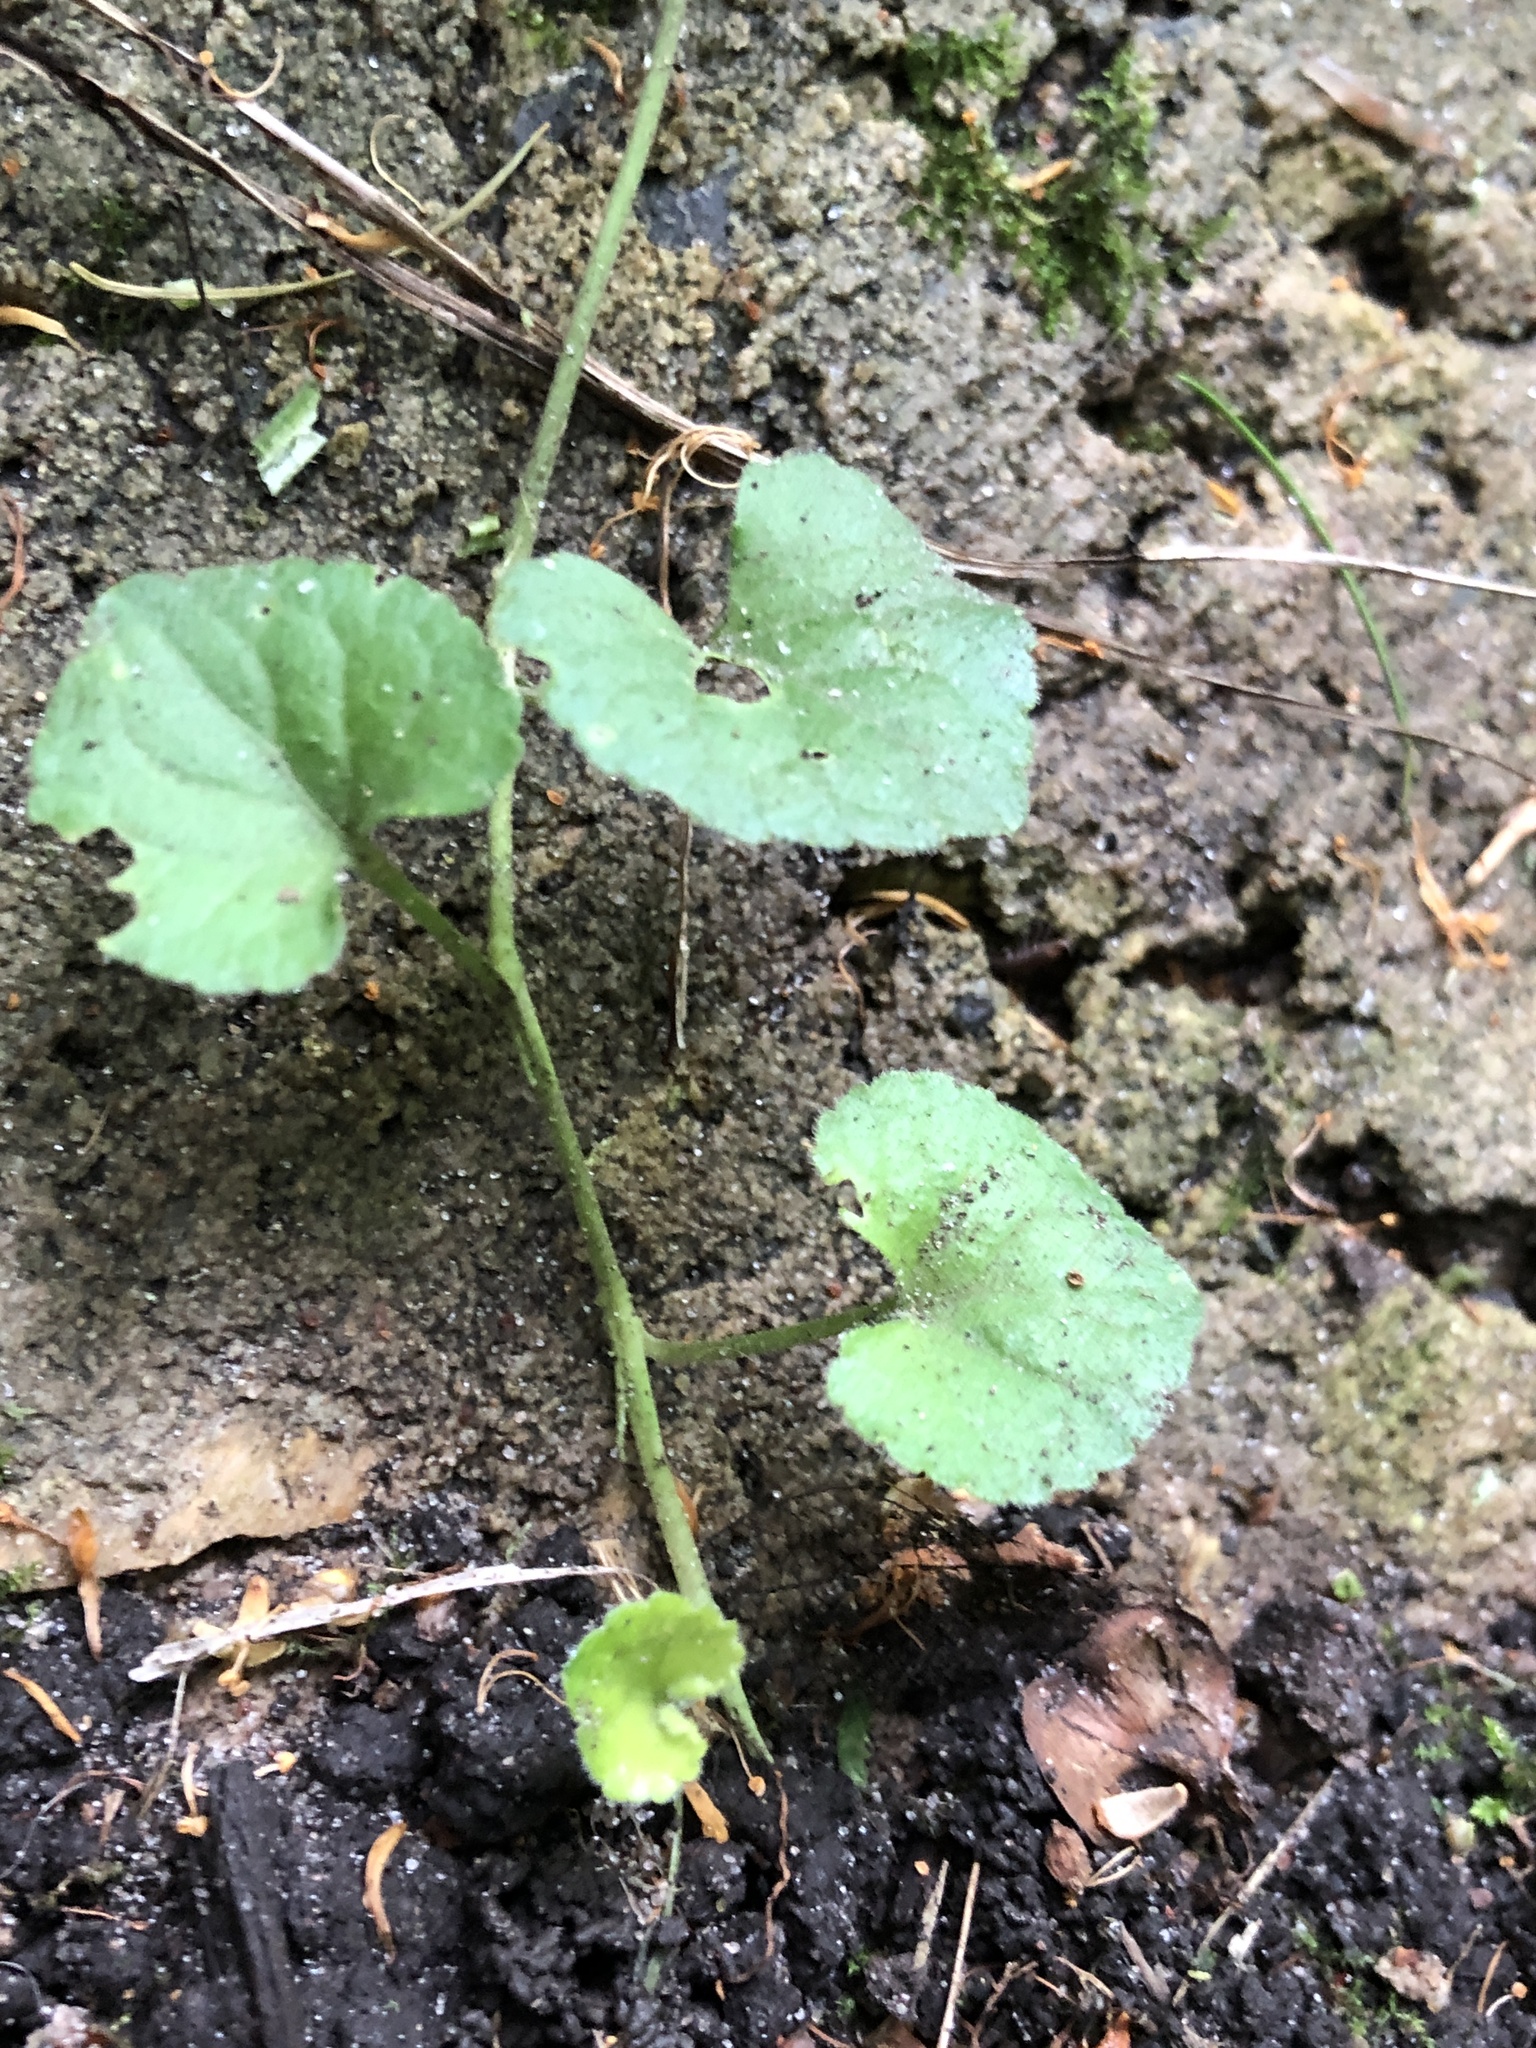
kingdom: Plantae
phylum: Tracheophyta
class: Magnoliopsida
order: Malpighiales
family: Violaceae
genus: Viola
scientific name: Viola odorata
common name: Sweet violet
